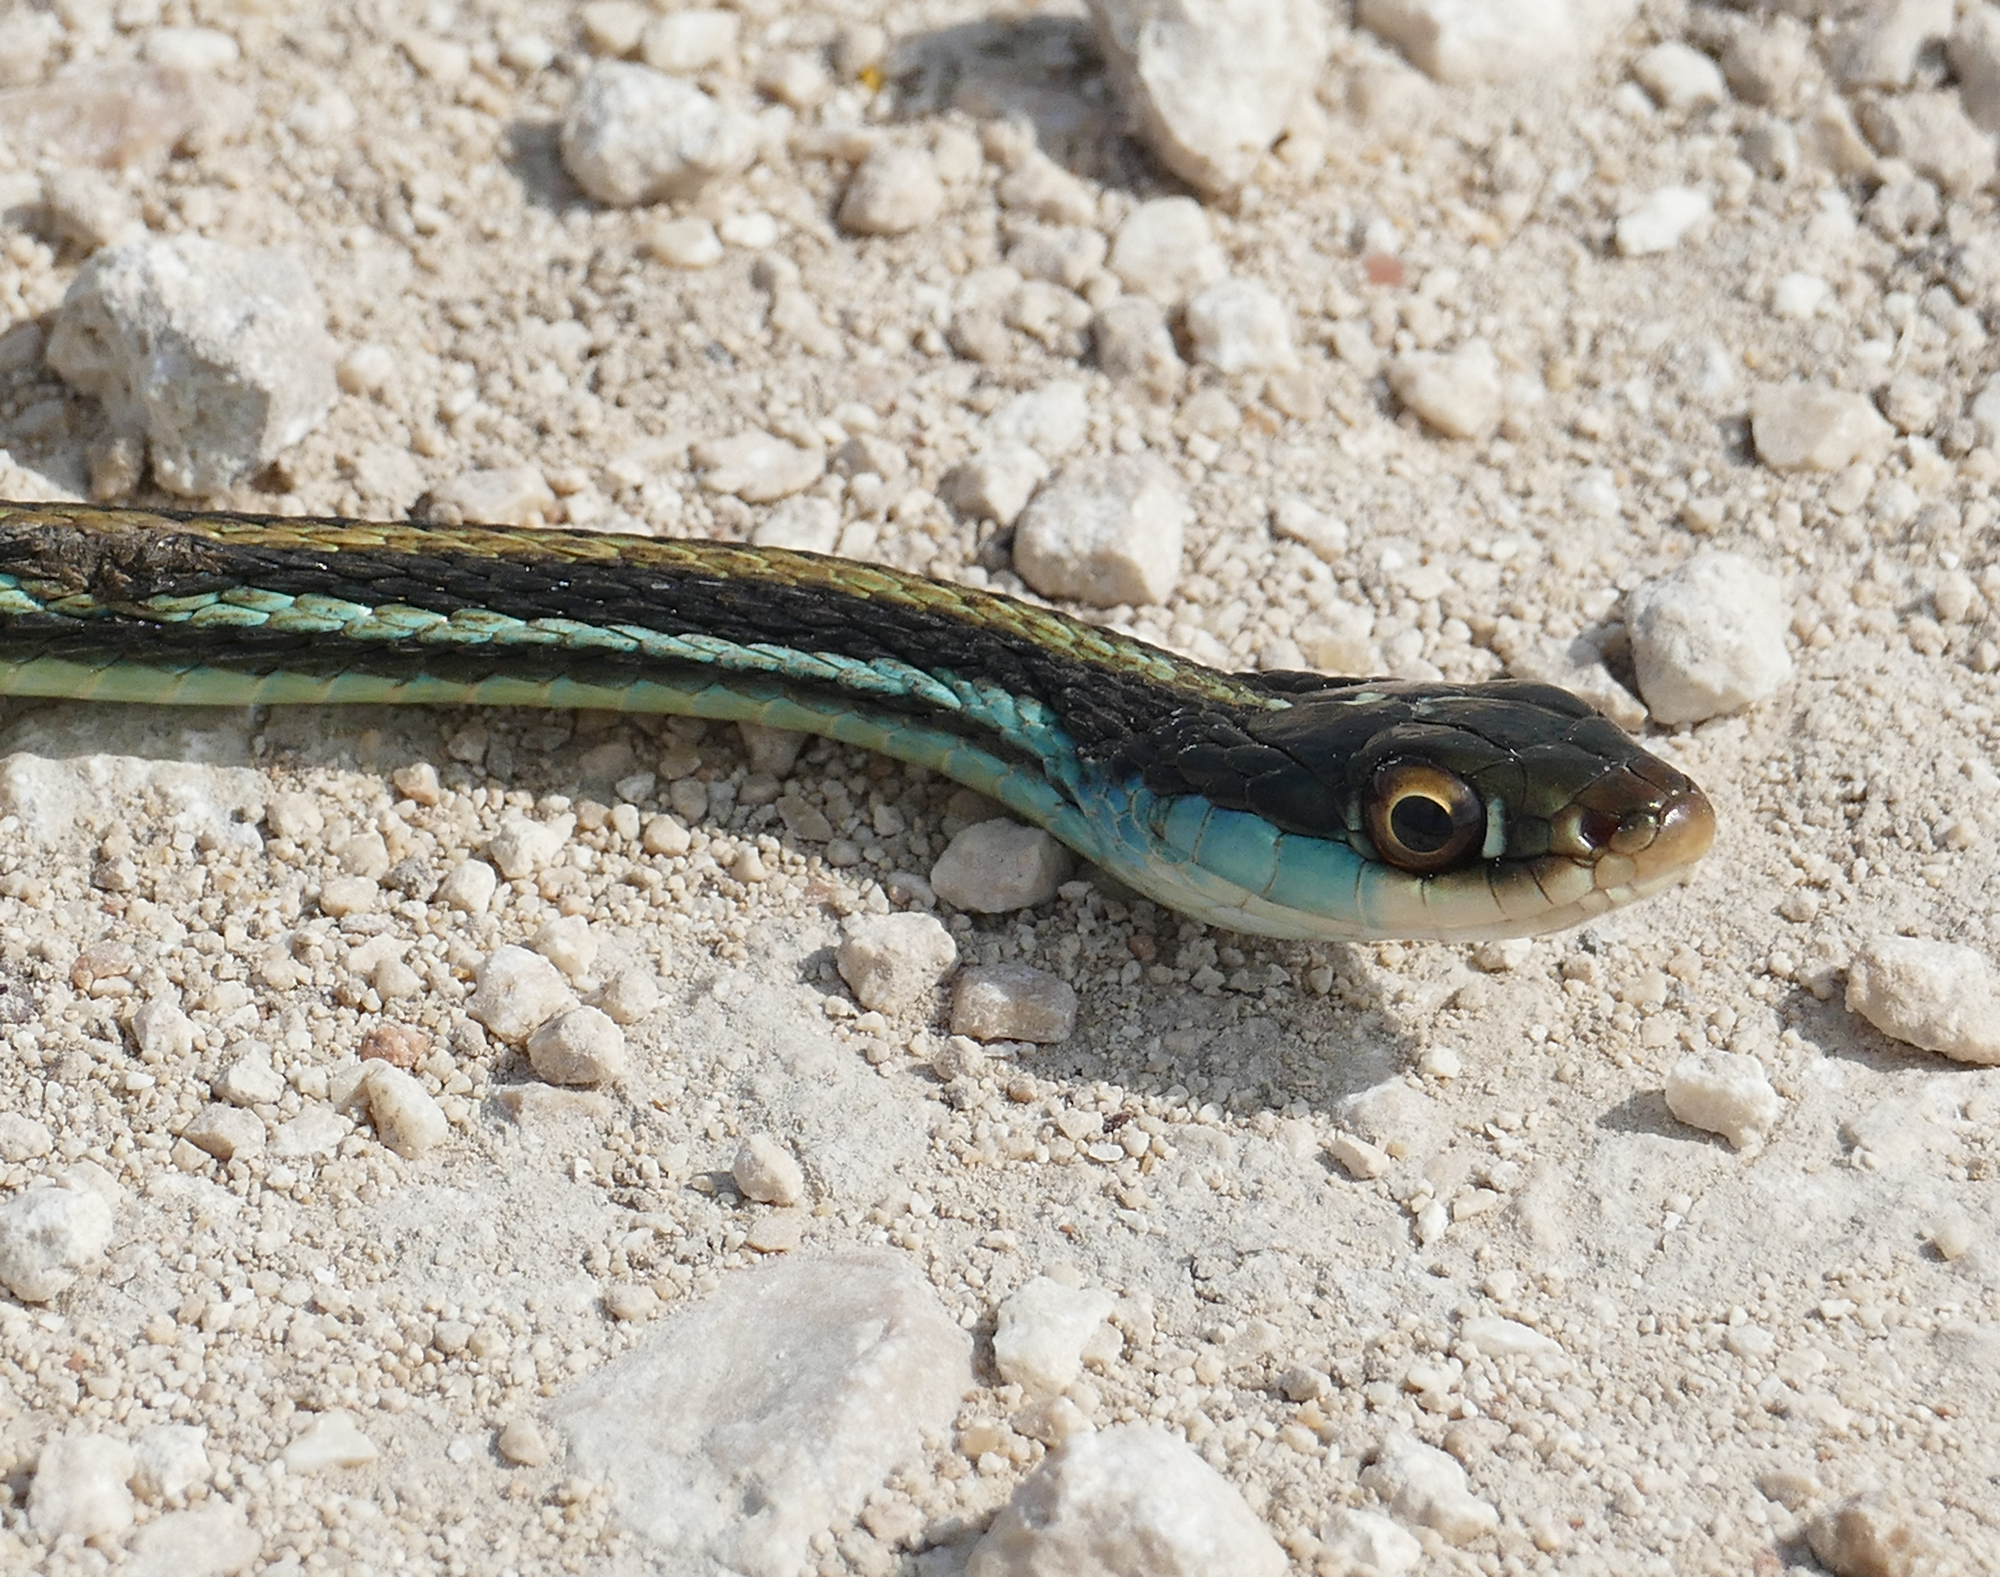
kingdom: Animalia
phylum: Chordata
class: Squamata
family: Colubridae
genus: Thamnophis
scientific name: Thamnophis proximus
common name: Western ribbon snake
